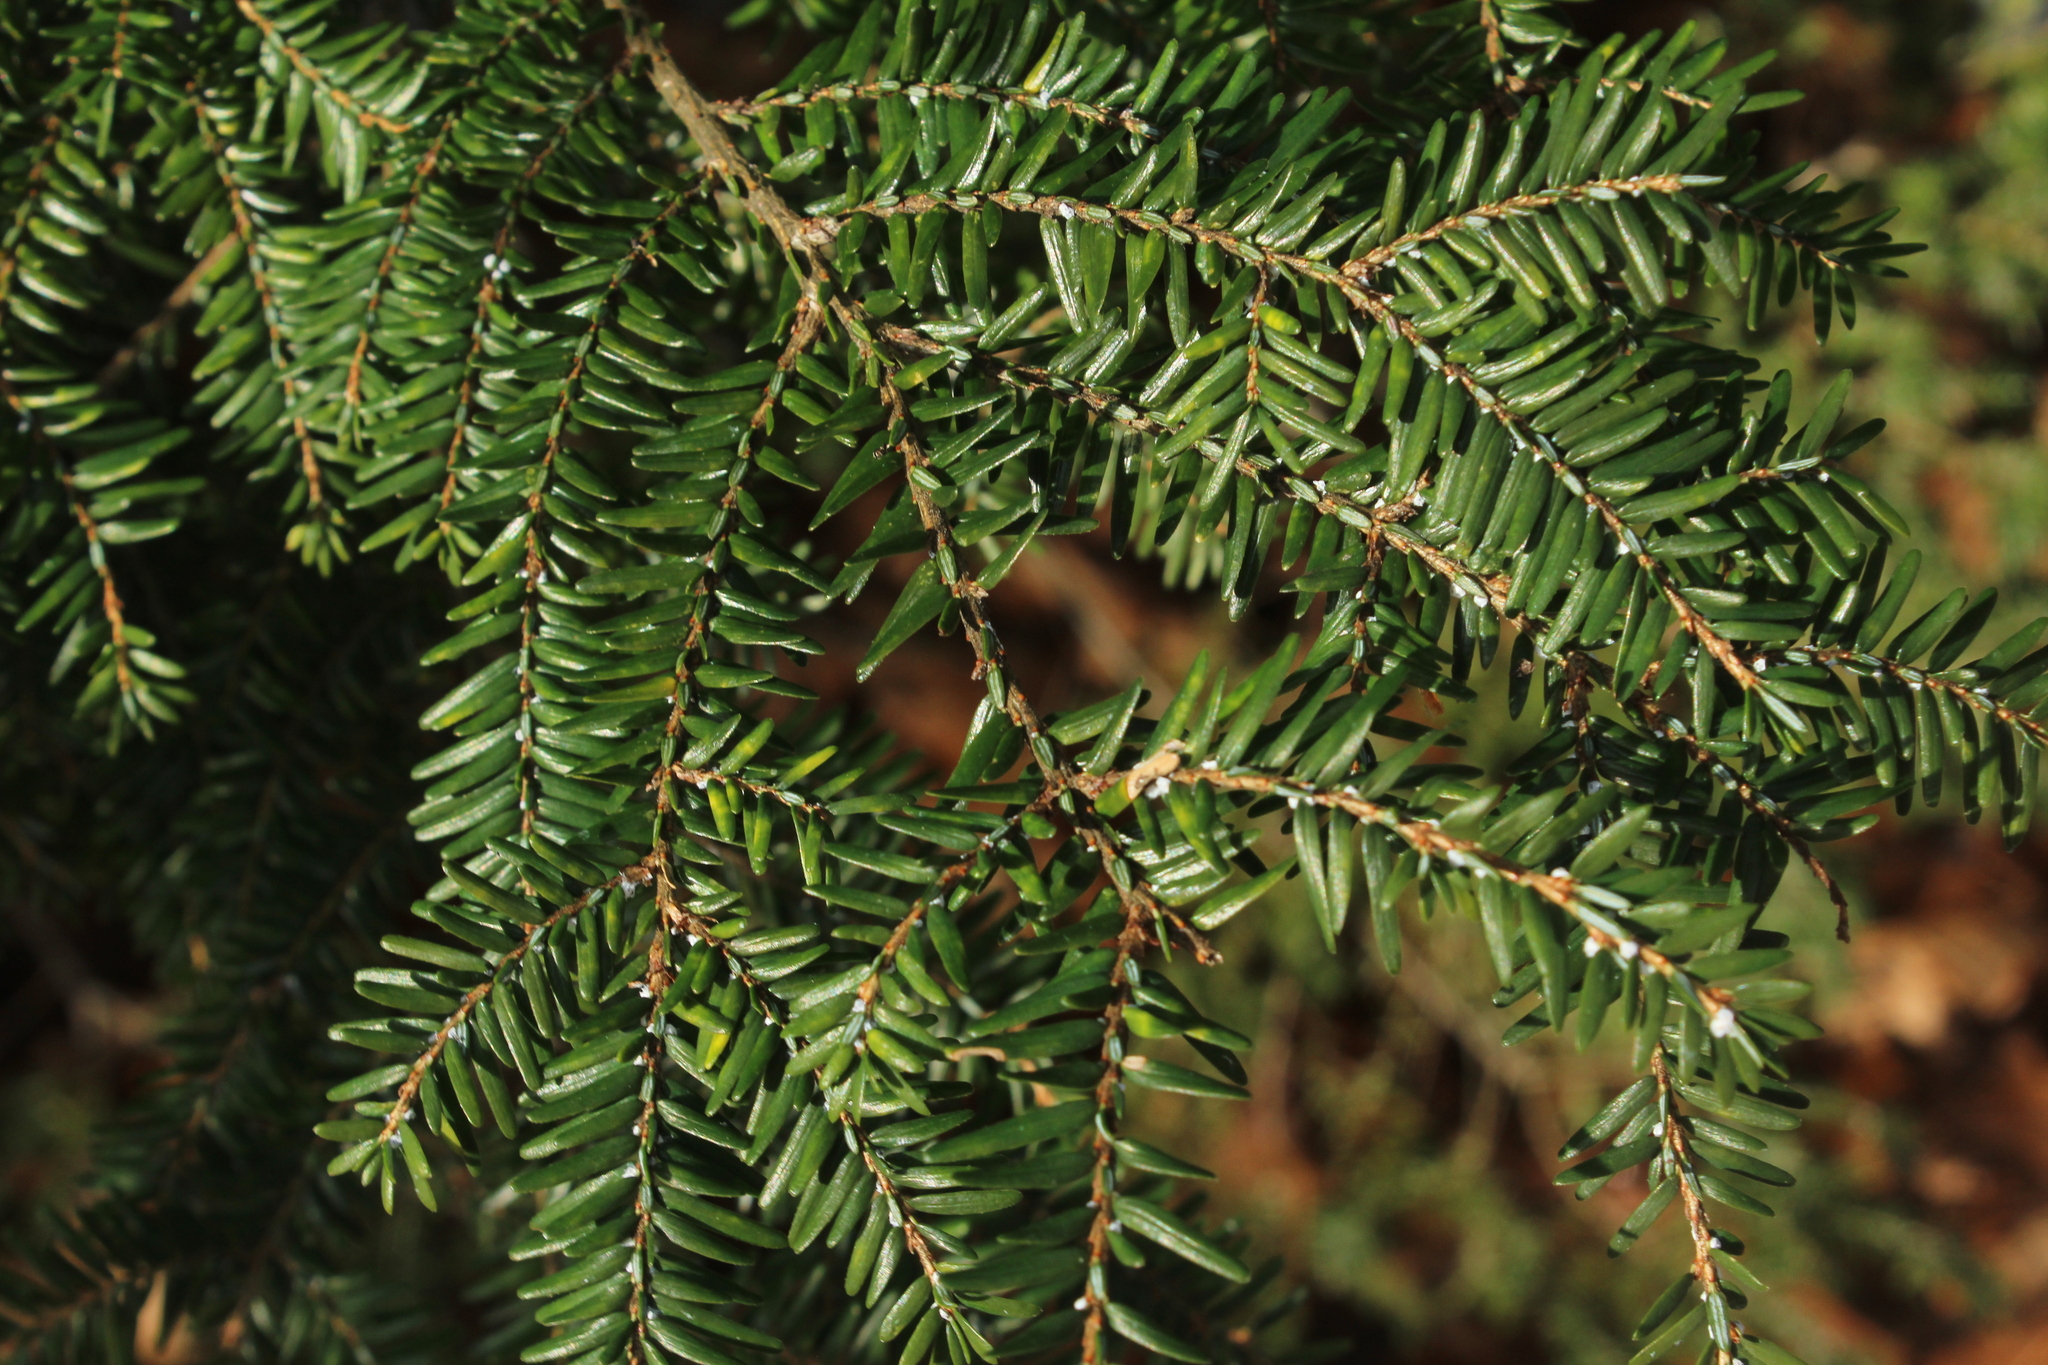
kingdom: Plantae
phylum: Tracheophyta
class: Pinopsida
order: Pinales
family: Pinaceae
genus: Tsuga
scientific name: Tsuga canadensis
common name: Eastern hemlock
